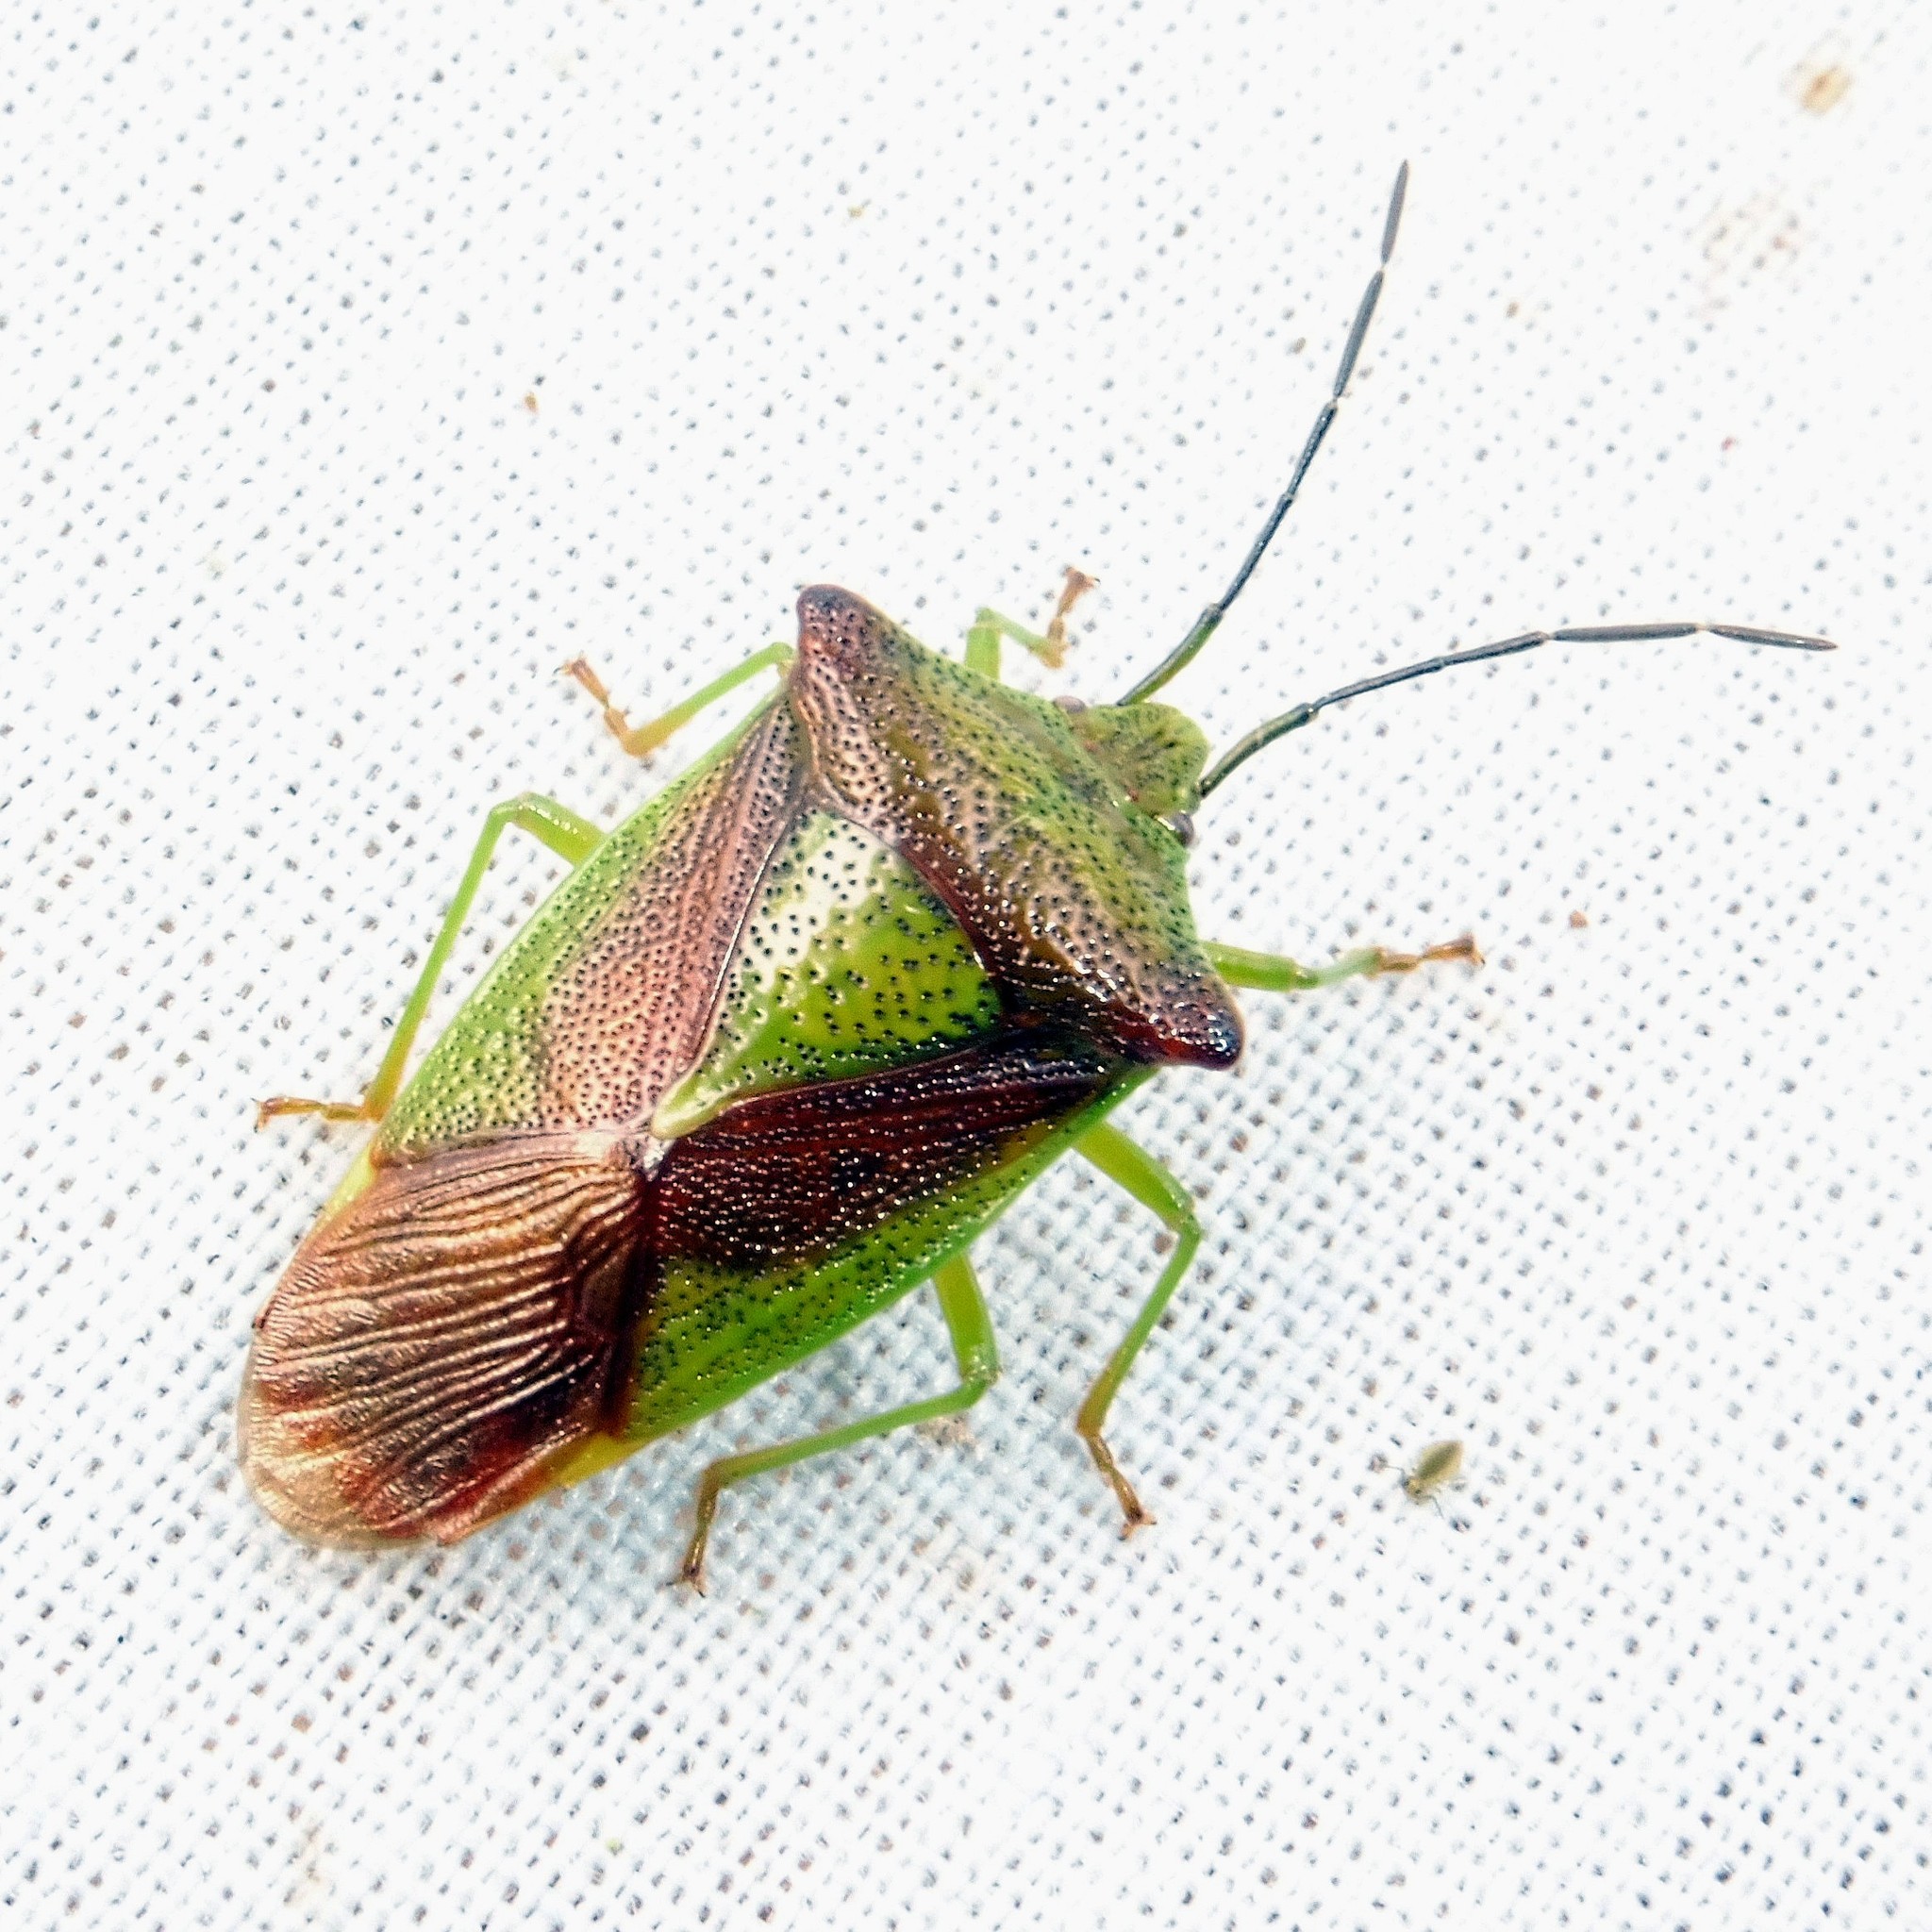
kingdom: Animalia
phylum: Arthropoda
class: Insecta
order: Hemiptera
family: Acanthosomatidae
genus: Acanthosoma
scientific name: Acanthosoma haemorrhoidale
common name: Hawthorn shieldbug
